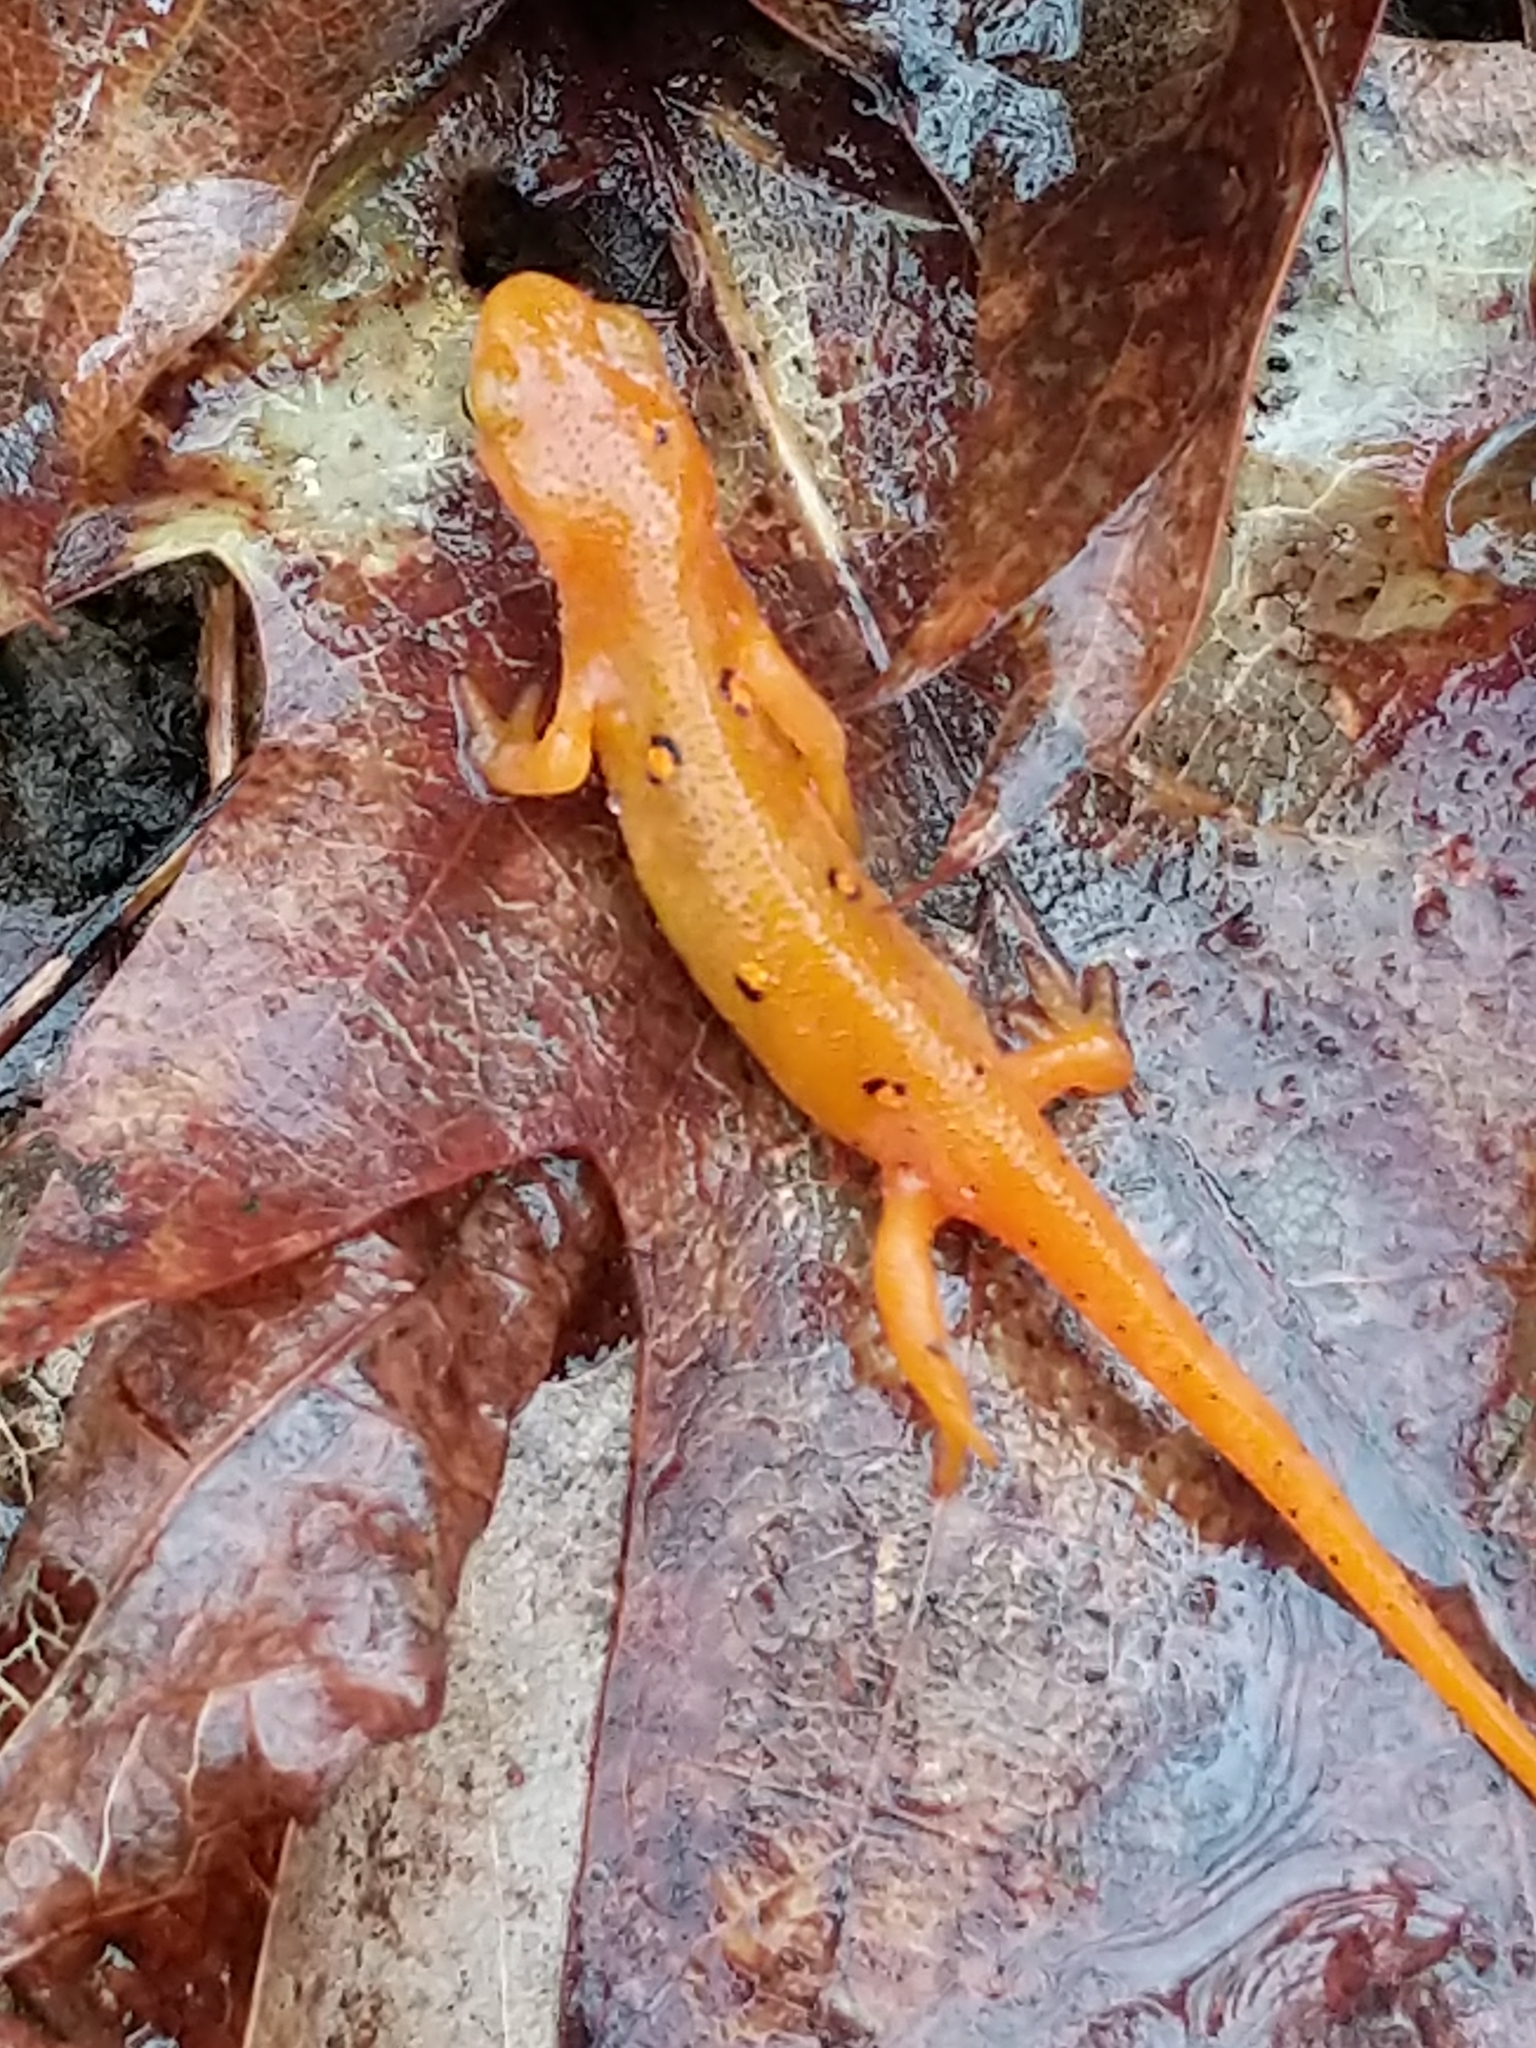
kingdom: Animalia
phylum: Chordata
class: Amphibia
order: Caudata
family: Salamandridae
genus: Notophthalmus
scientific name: Notophthalmus viridescens
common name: Eastern newt
